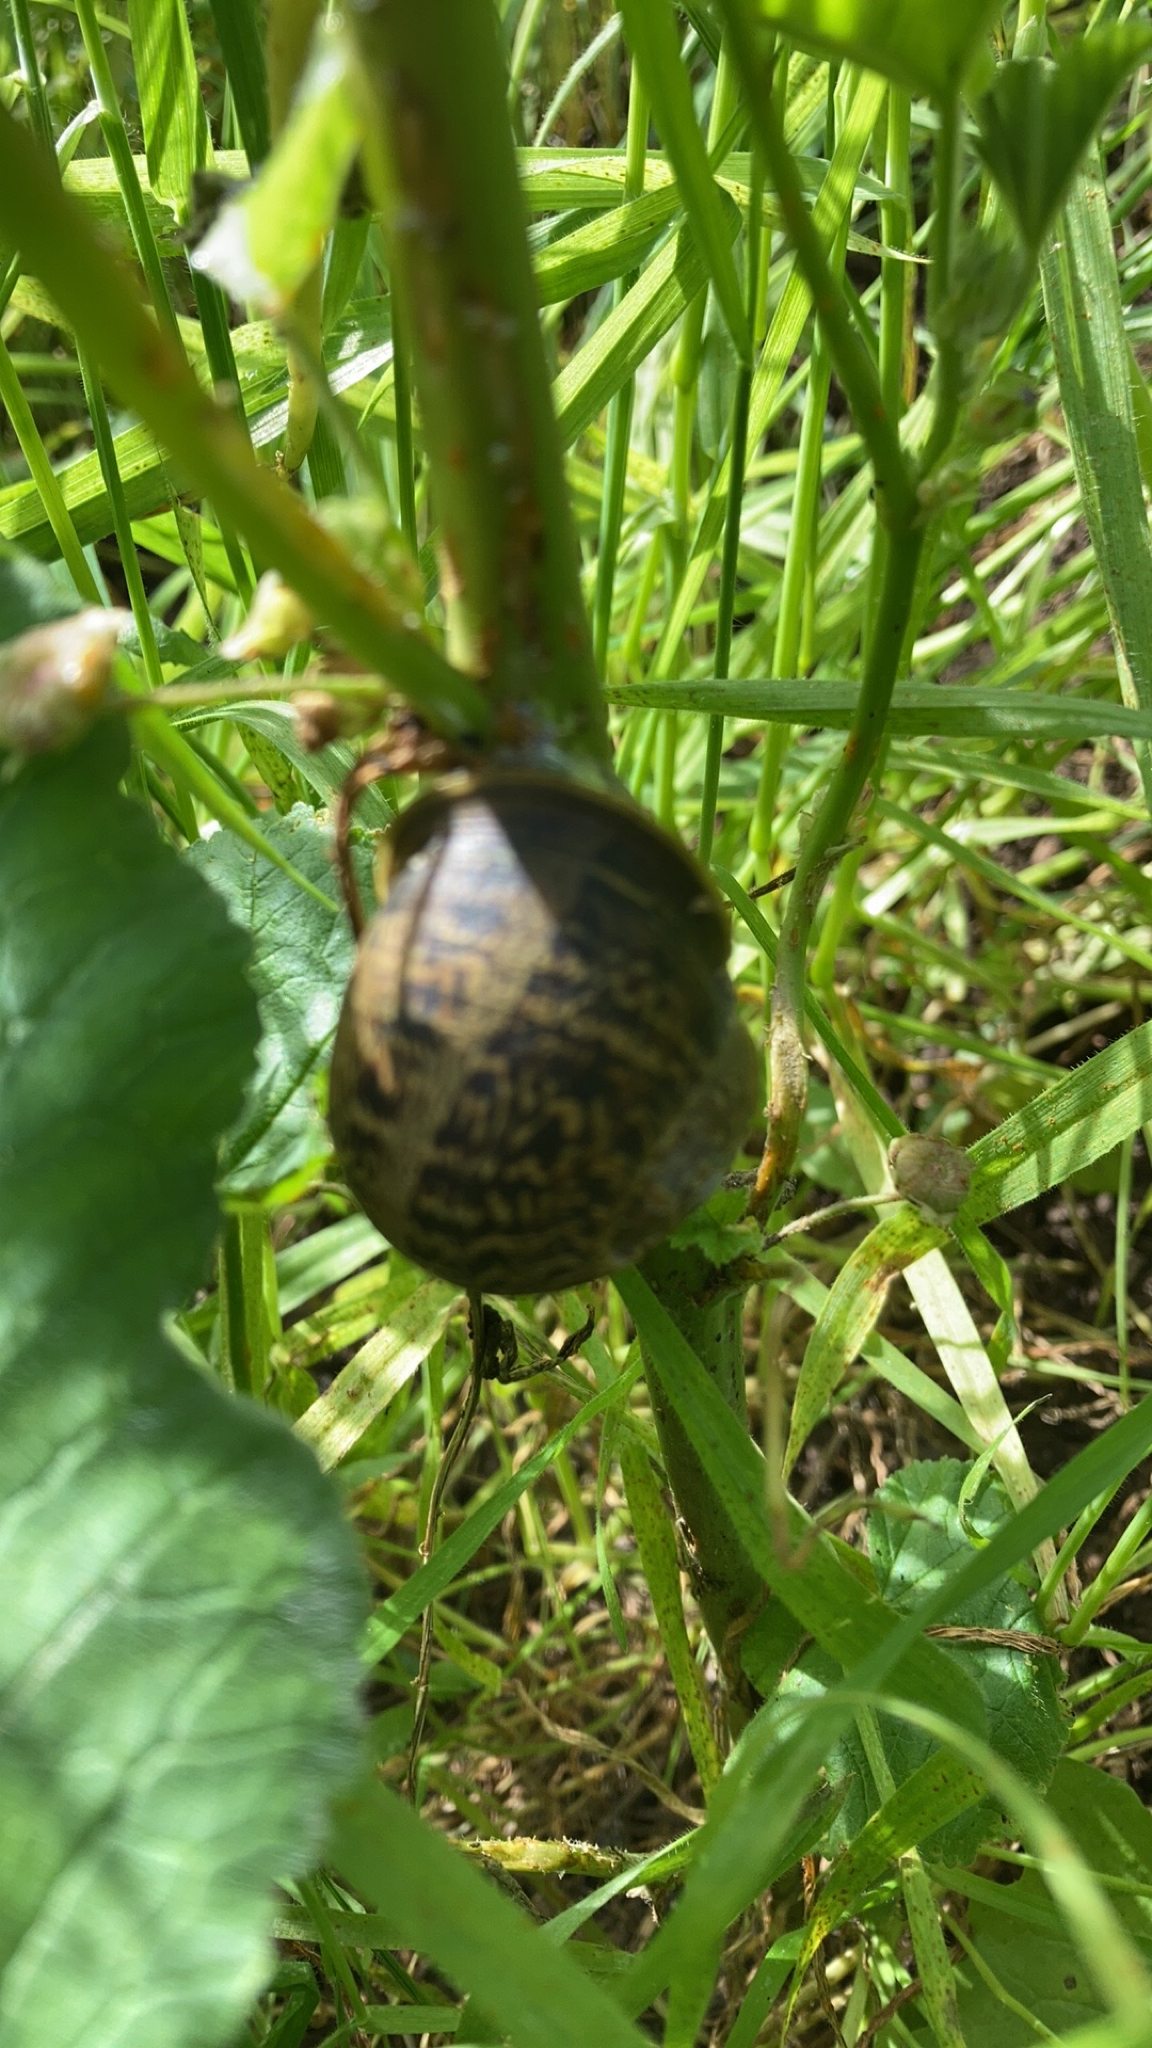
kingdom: Animalia
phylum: Mollusca
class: Gastropoda
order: Stylommatophora
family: Helicidae
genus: Cornu
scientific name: Cornu aspersum
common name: Brown garden snail
